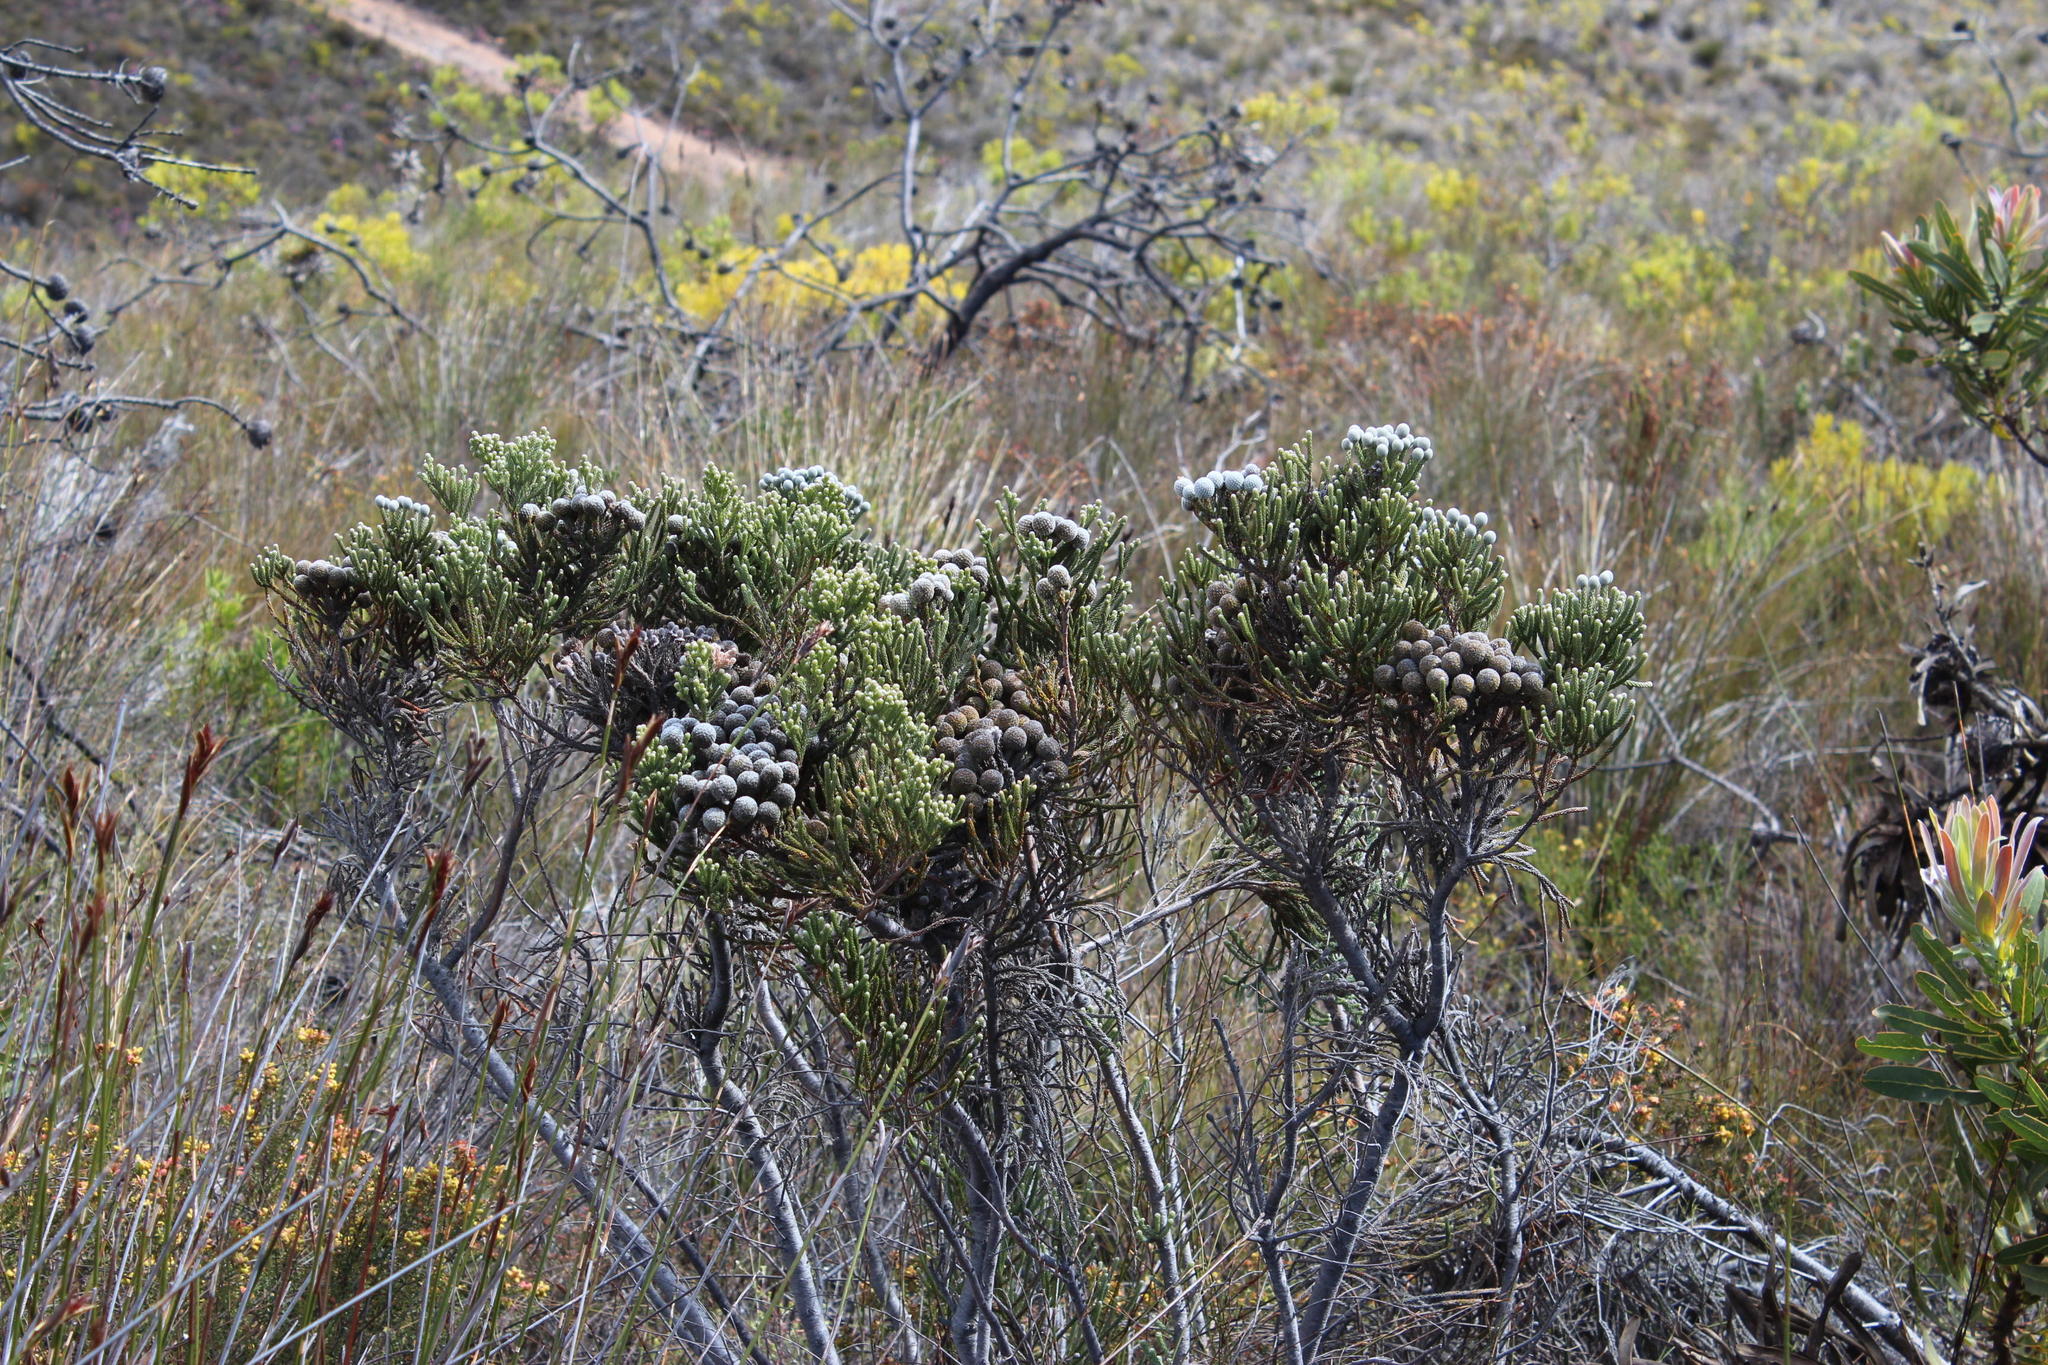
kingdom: Plantae
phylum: Tracheophyta
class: Magnoliopsida
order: Bruniales
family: Bruniaceae
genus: Brunia
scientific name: Brunia noduliflora
